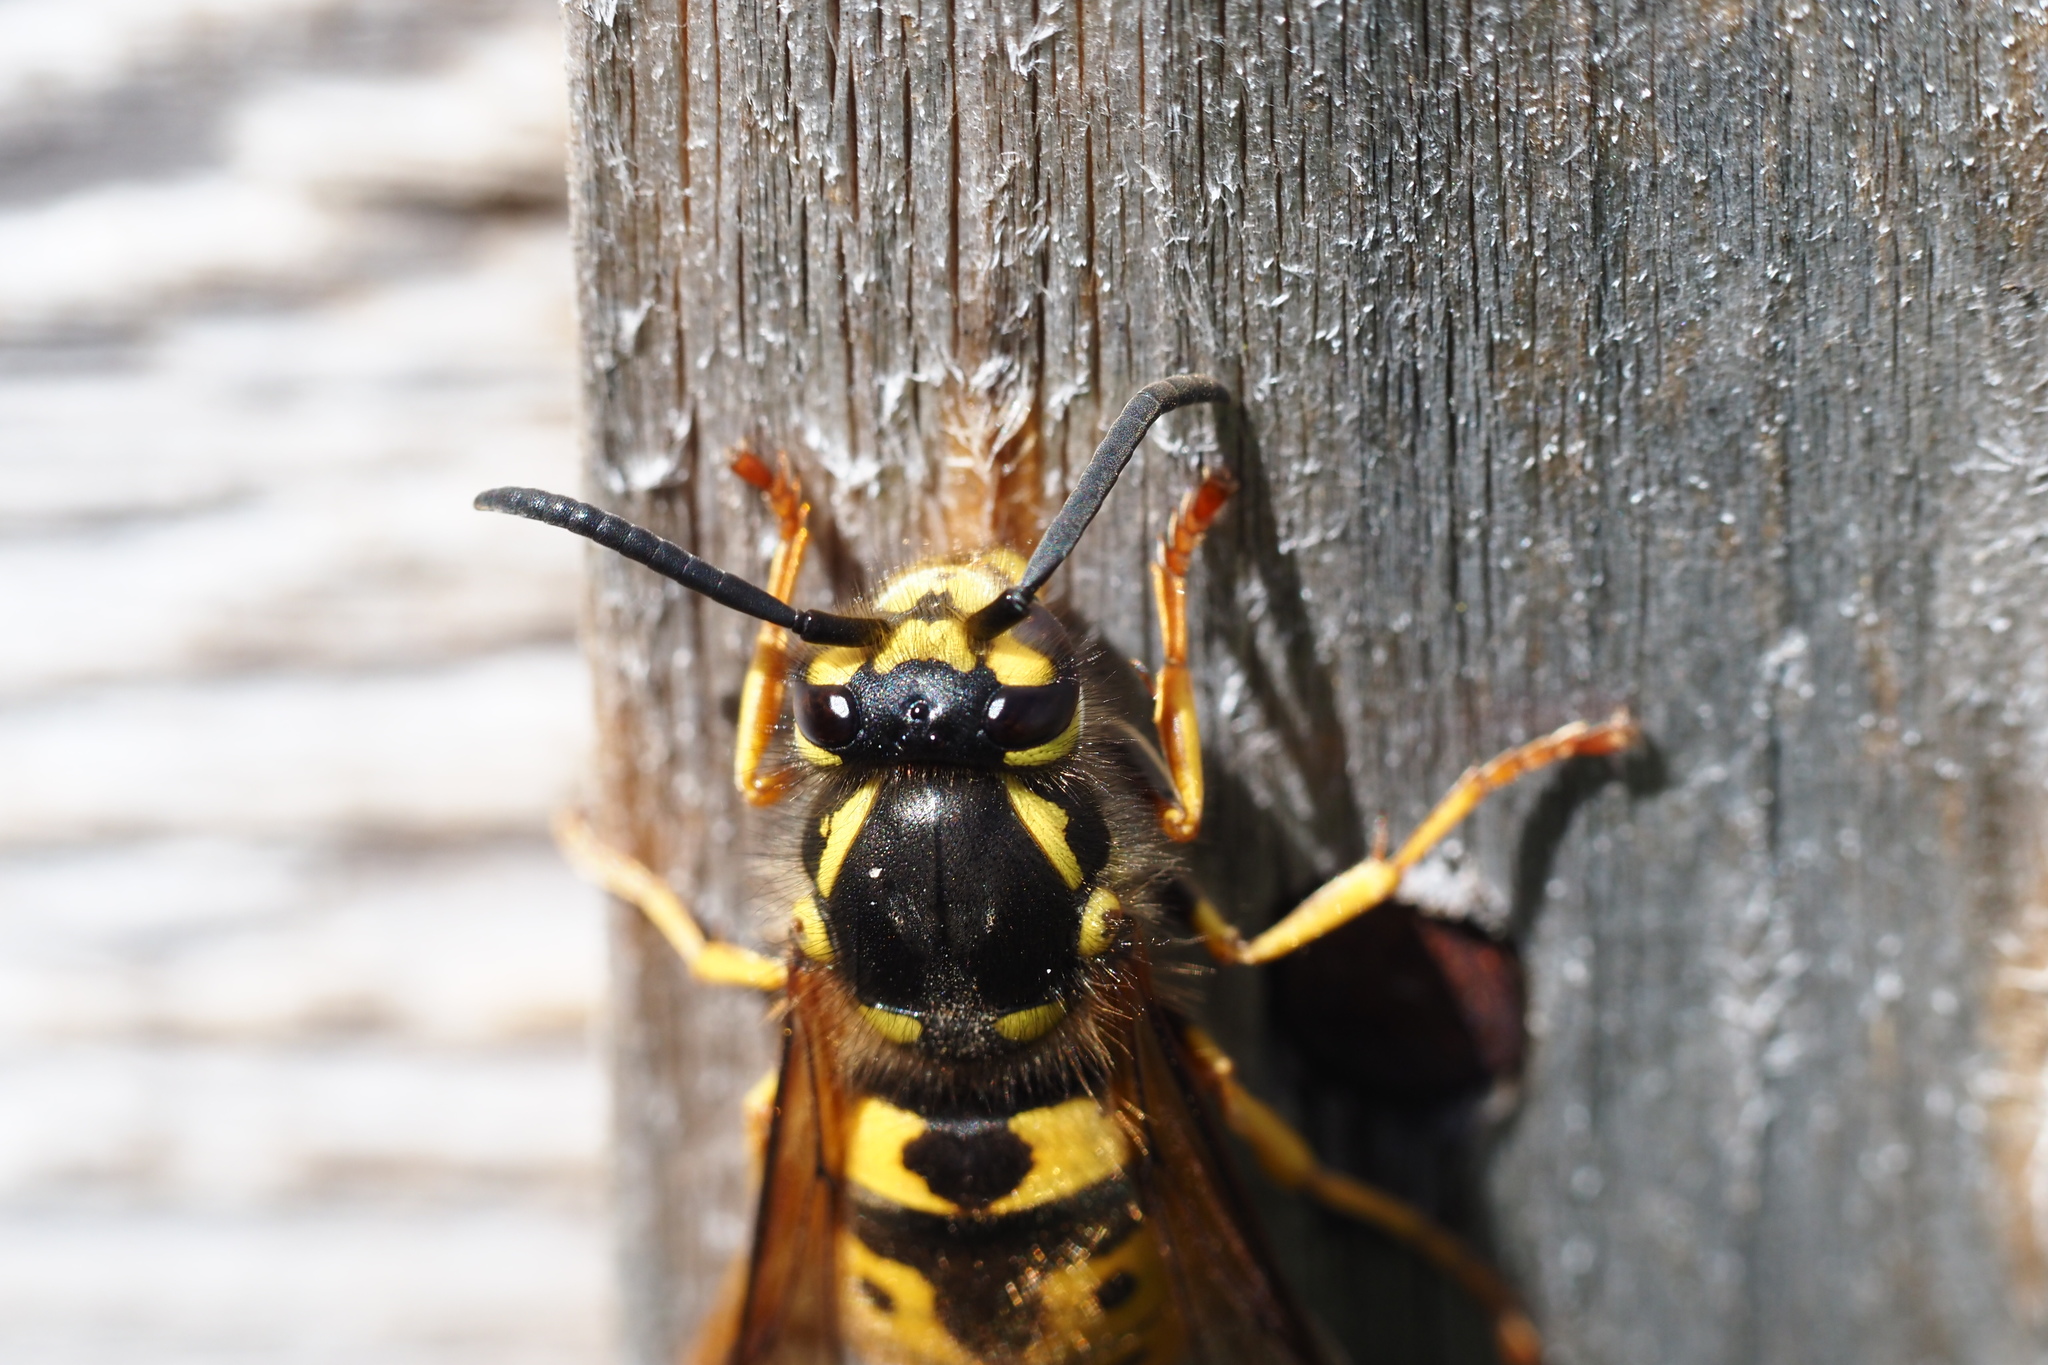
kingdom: Animalia
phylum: Arthropoda
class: Insecta
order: Hymenoptera
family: Vespidae
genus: Vespula
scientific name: Vespula germanica
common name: German wasp
